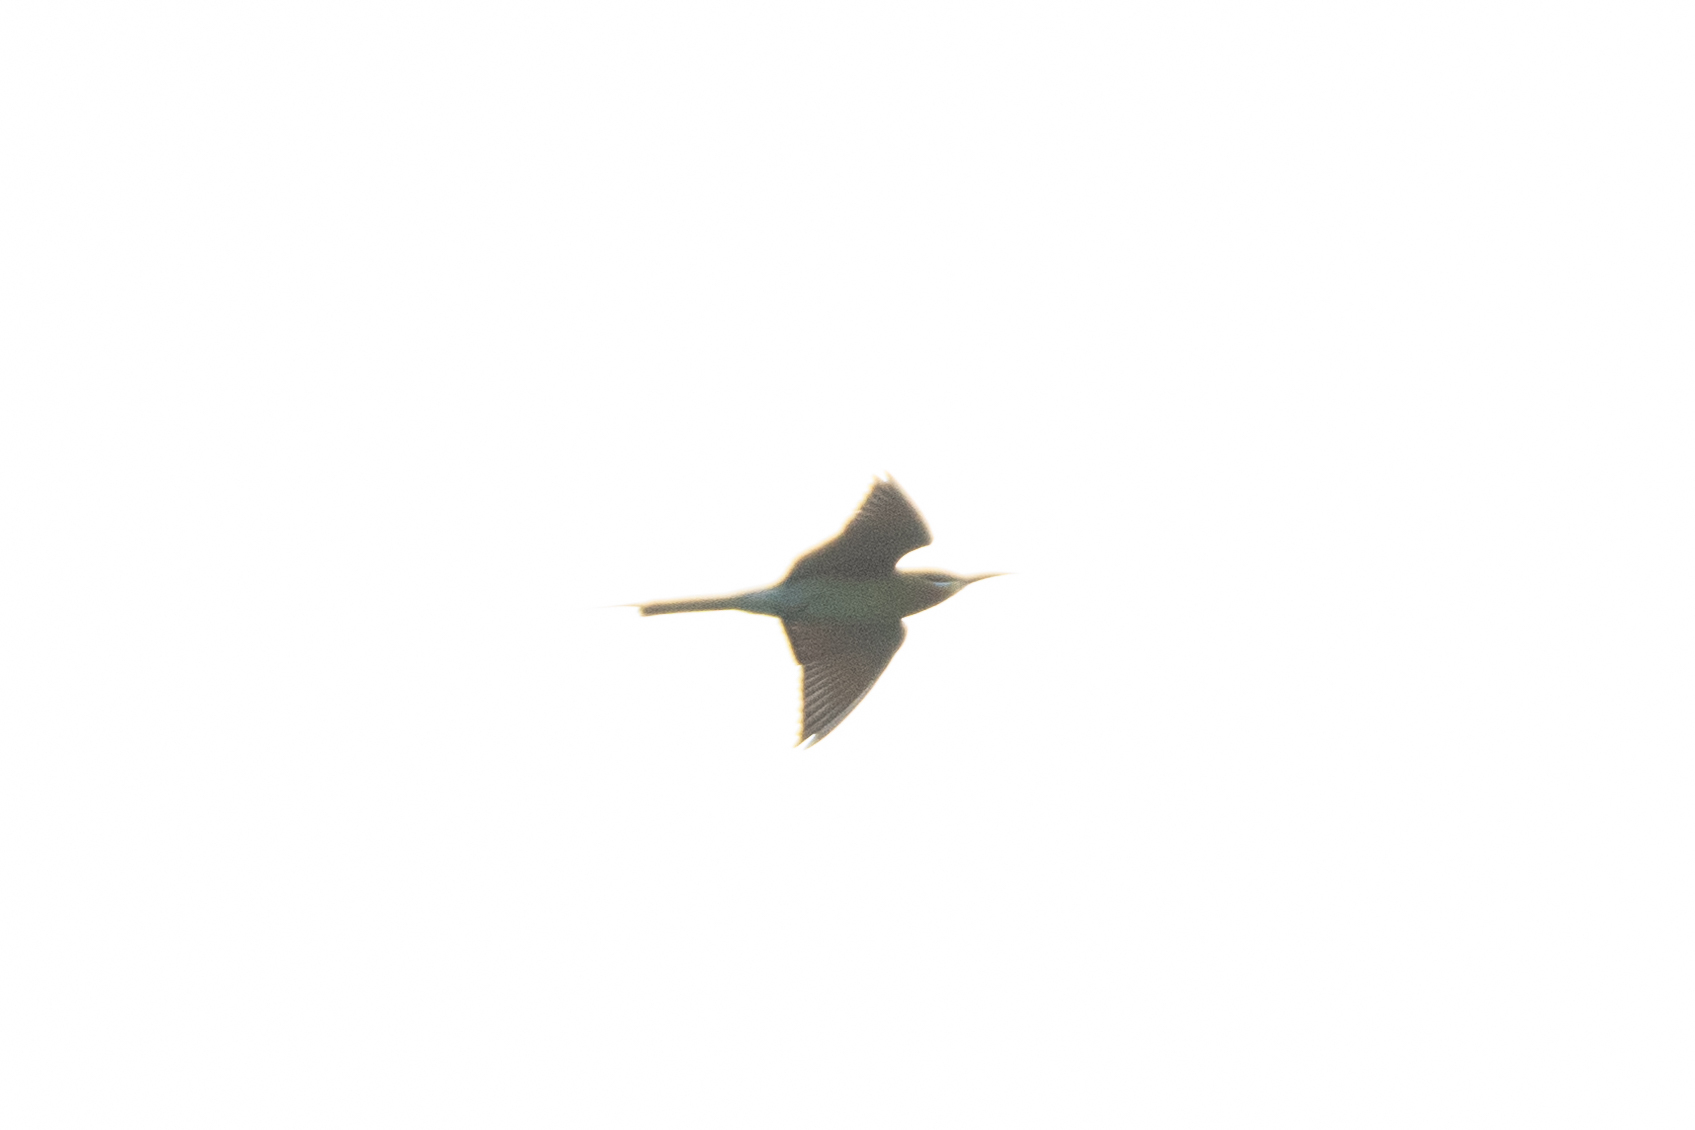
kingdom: Animalia
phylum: Chordata
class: Aves
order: Coraciiformes
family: Meropidae
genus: Merops
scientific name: Merops philippinus
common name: Blue-tailed bee-eater
